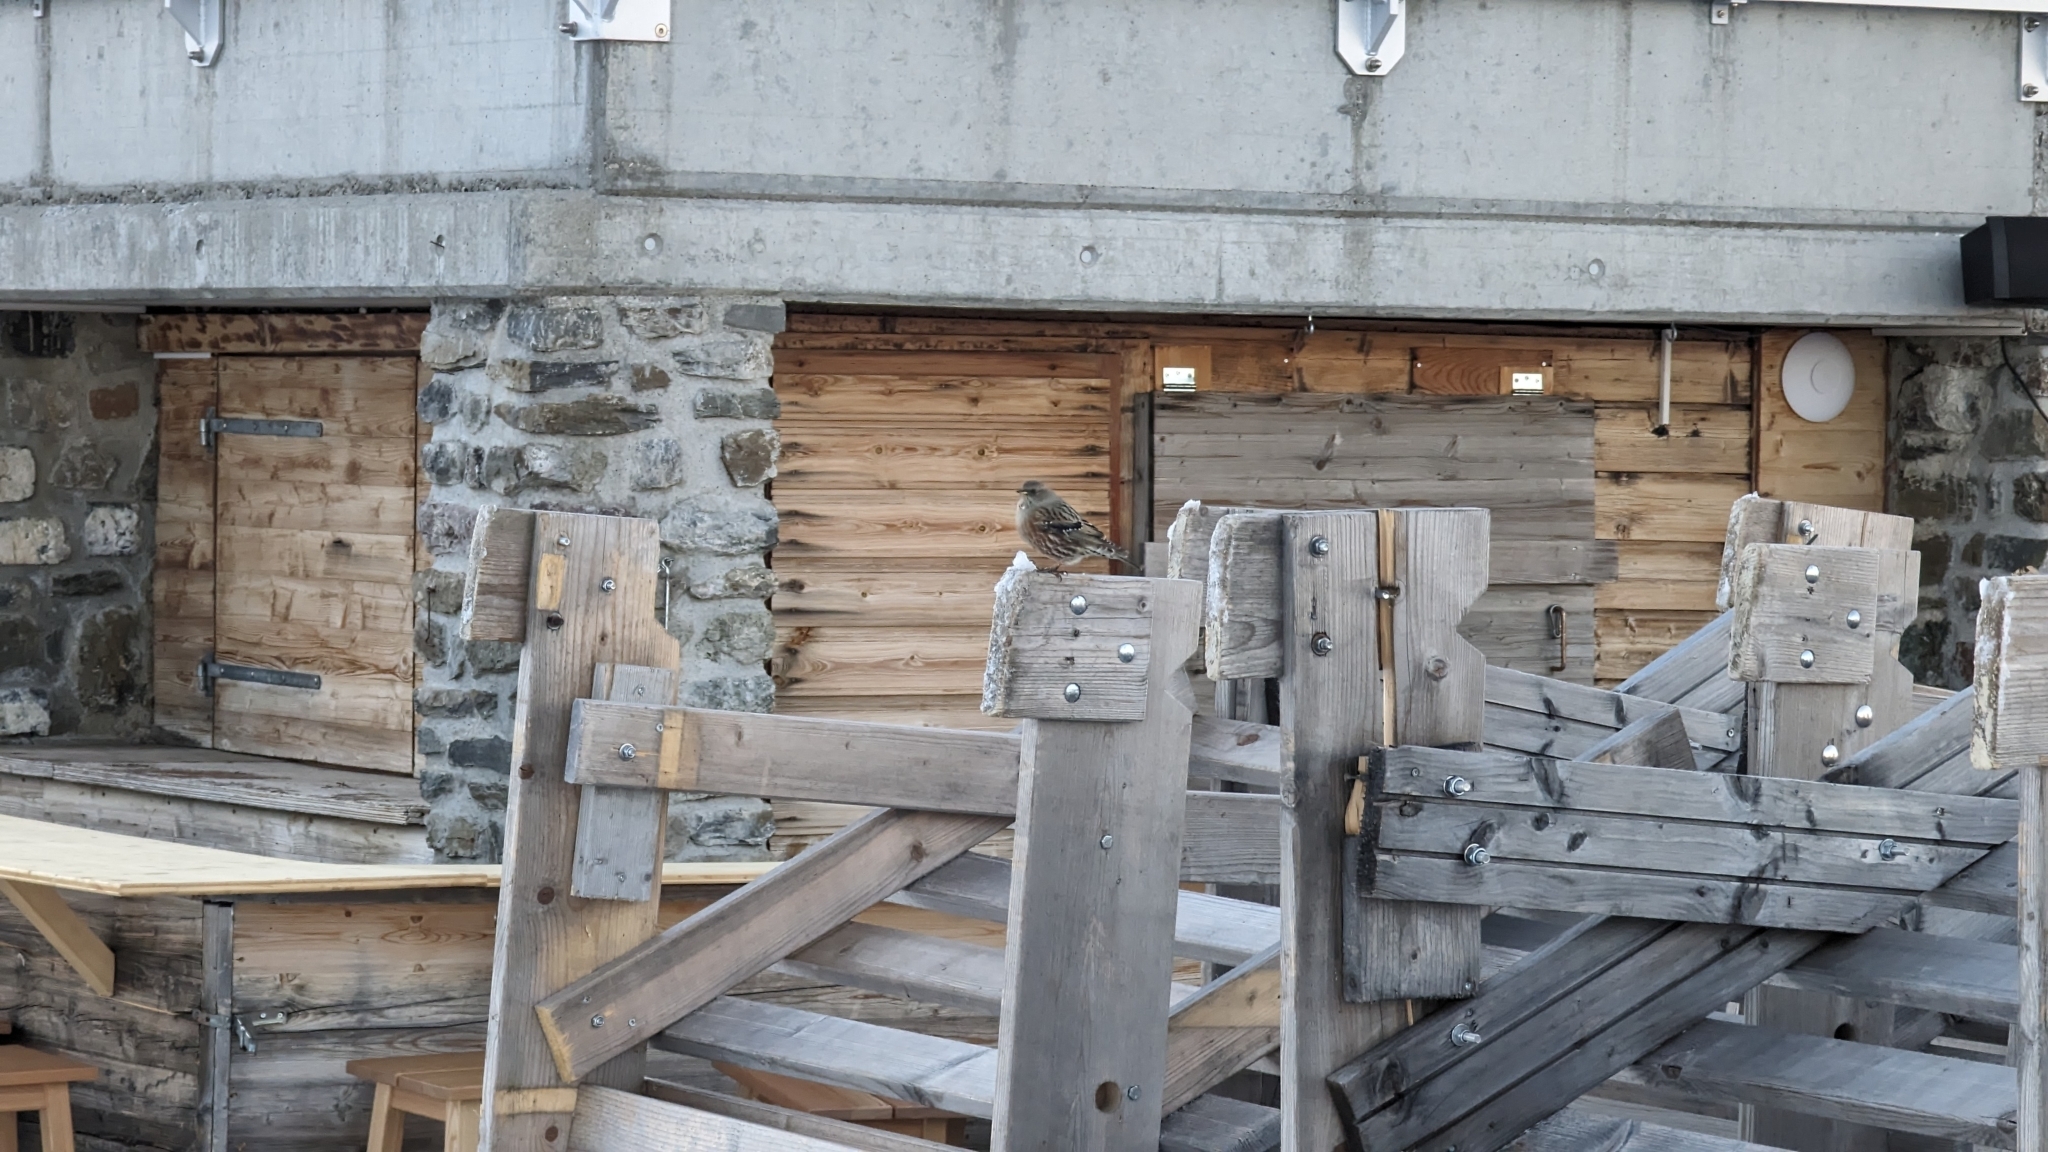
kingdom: Animalia
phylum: Chordata
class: Aves
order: Passeriformes
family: Prunellidae
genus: Prunella
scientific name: Prunella collaris
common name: Alpine accentor
